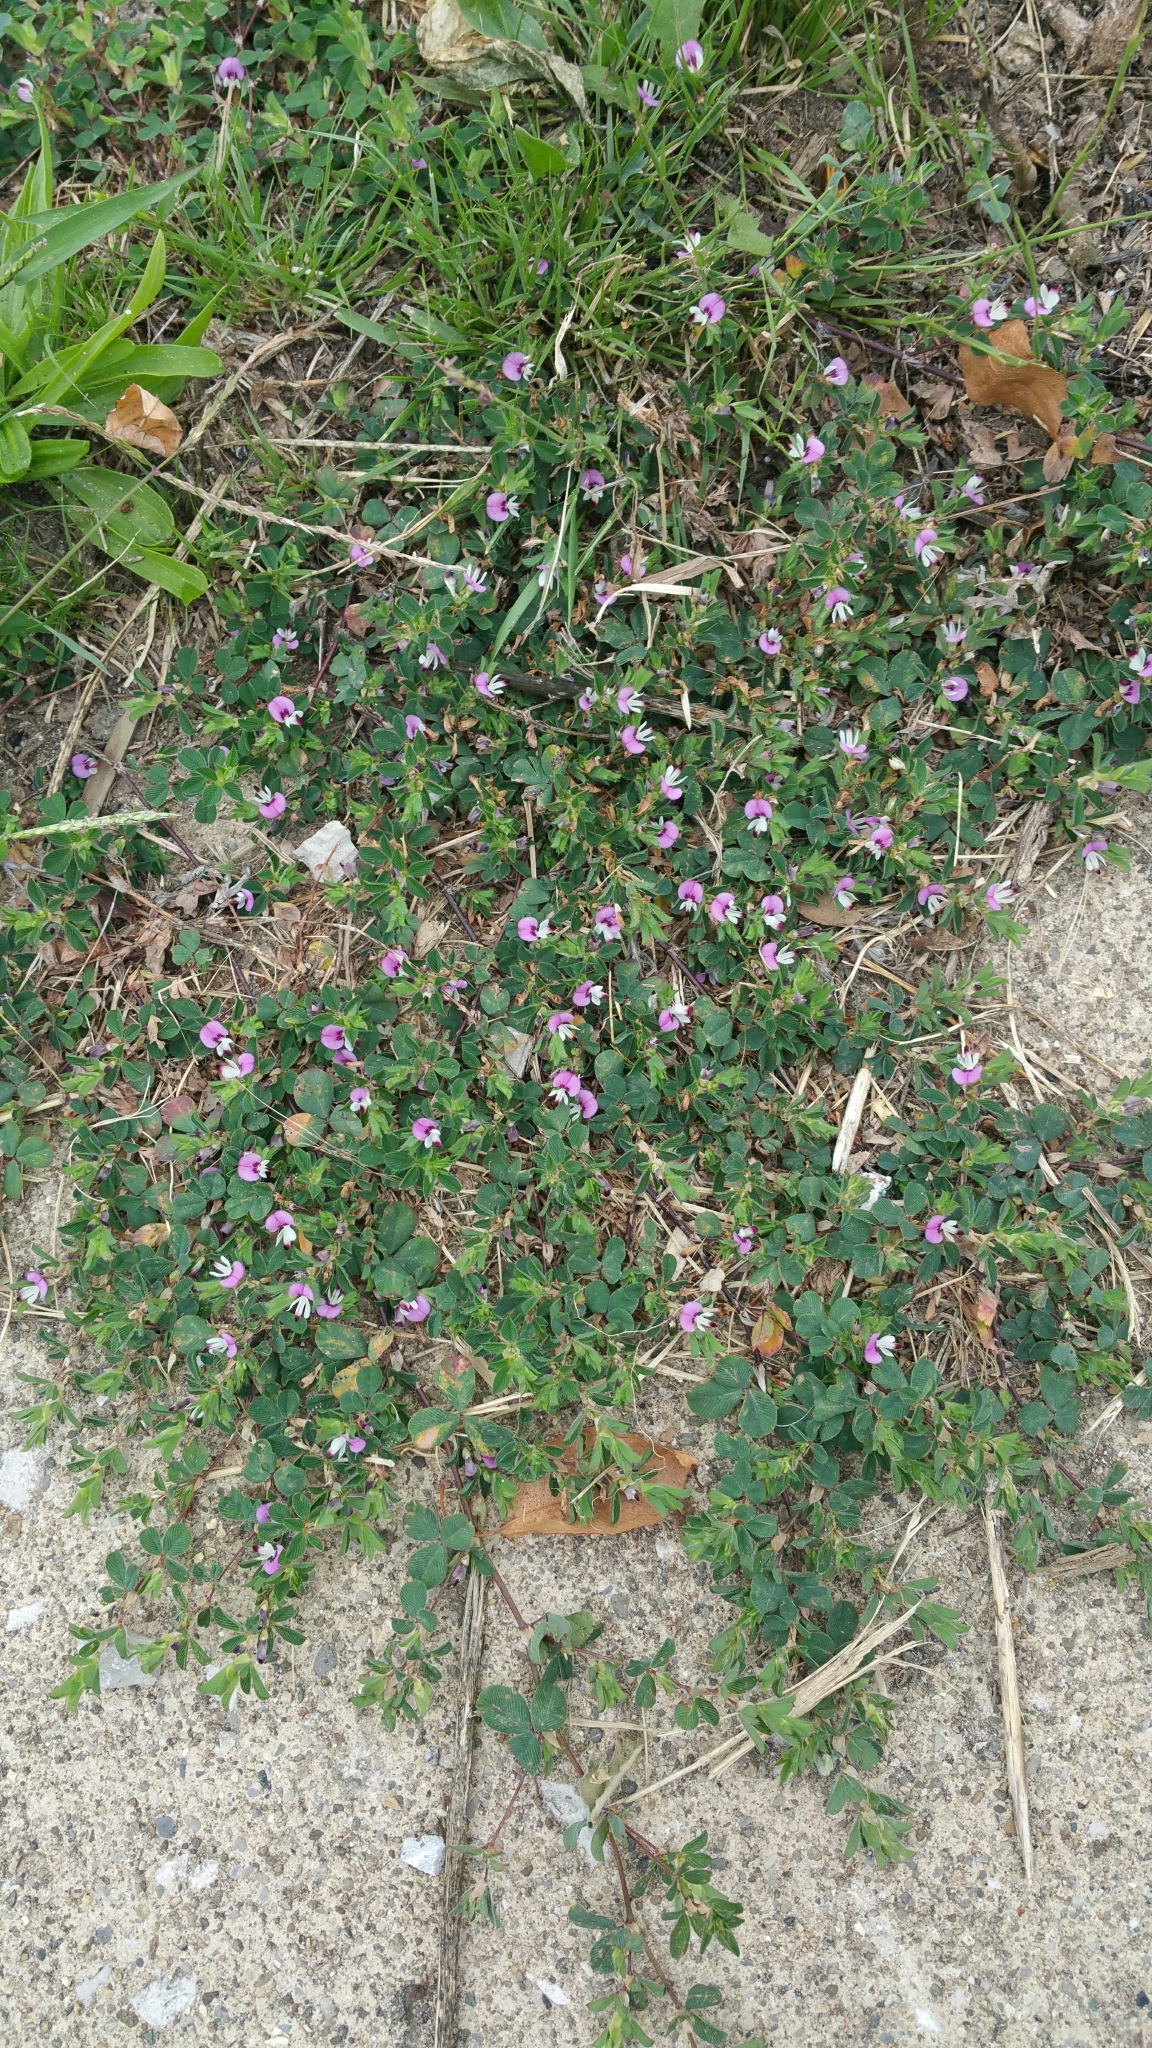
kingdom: Plantae
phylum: Tracheophyta
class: Magnoliopsida
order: Fabales
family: Fabaceae
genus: Kummerowia
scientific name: Kummerowia stipulacea
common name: Korean clover
